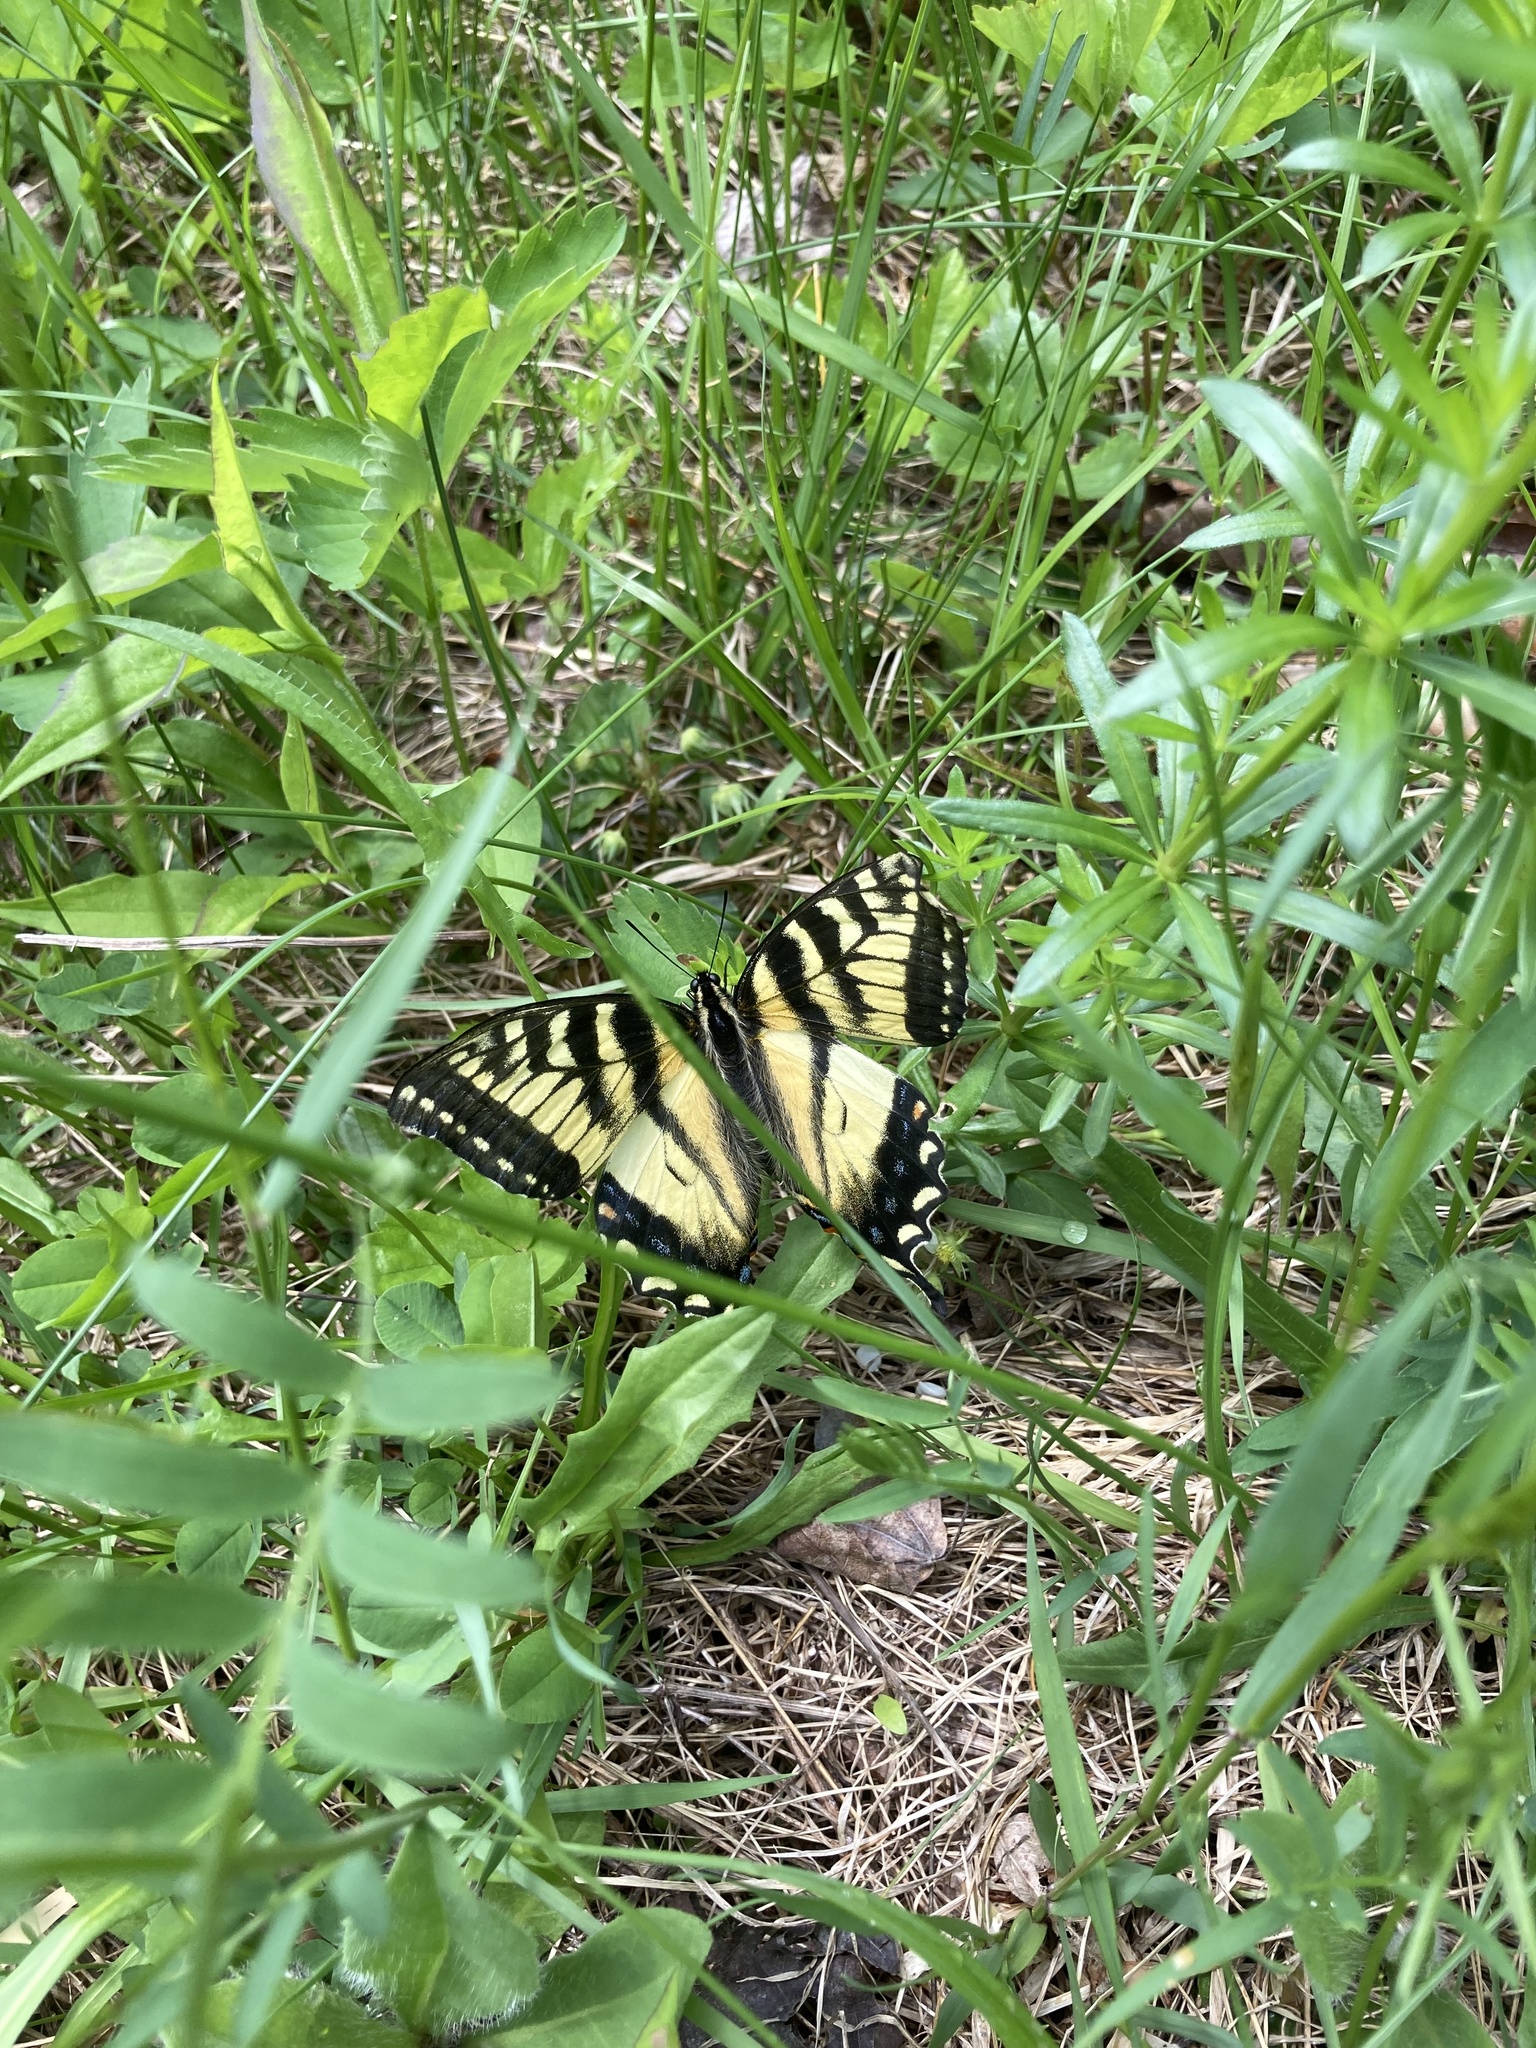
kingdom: Animalia
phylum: Arthropoda
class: Insecta
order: Lepidoptera
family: Papilionidae
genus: Papilio
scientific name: Papilio canadensis
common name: Canadian tiger swallowtail
